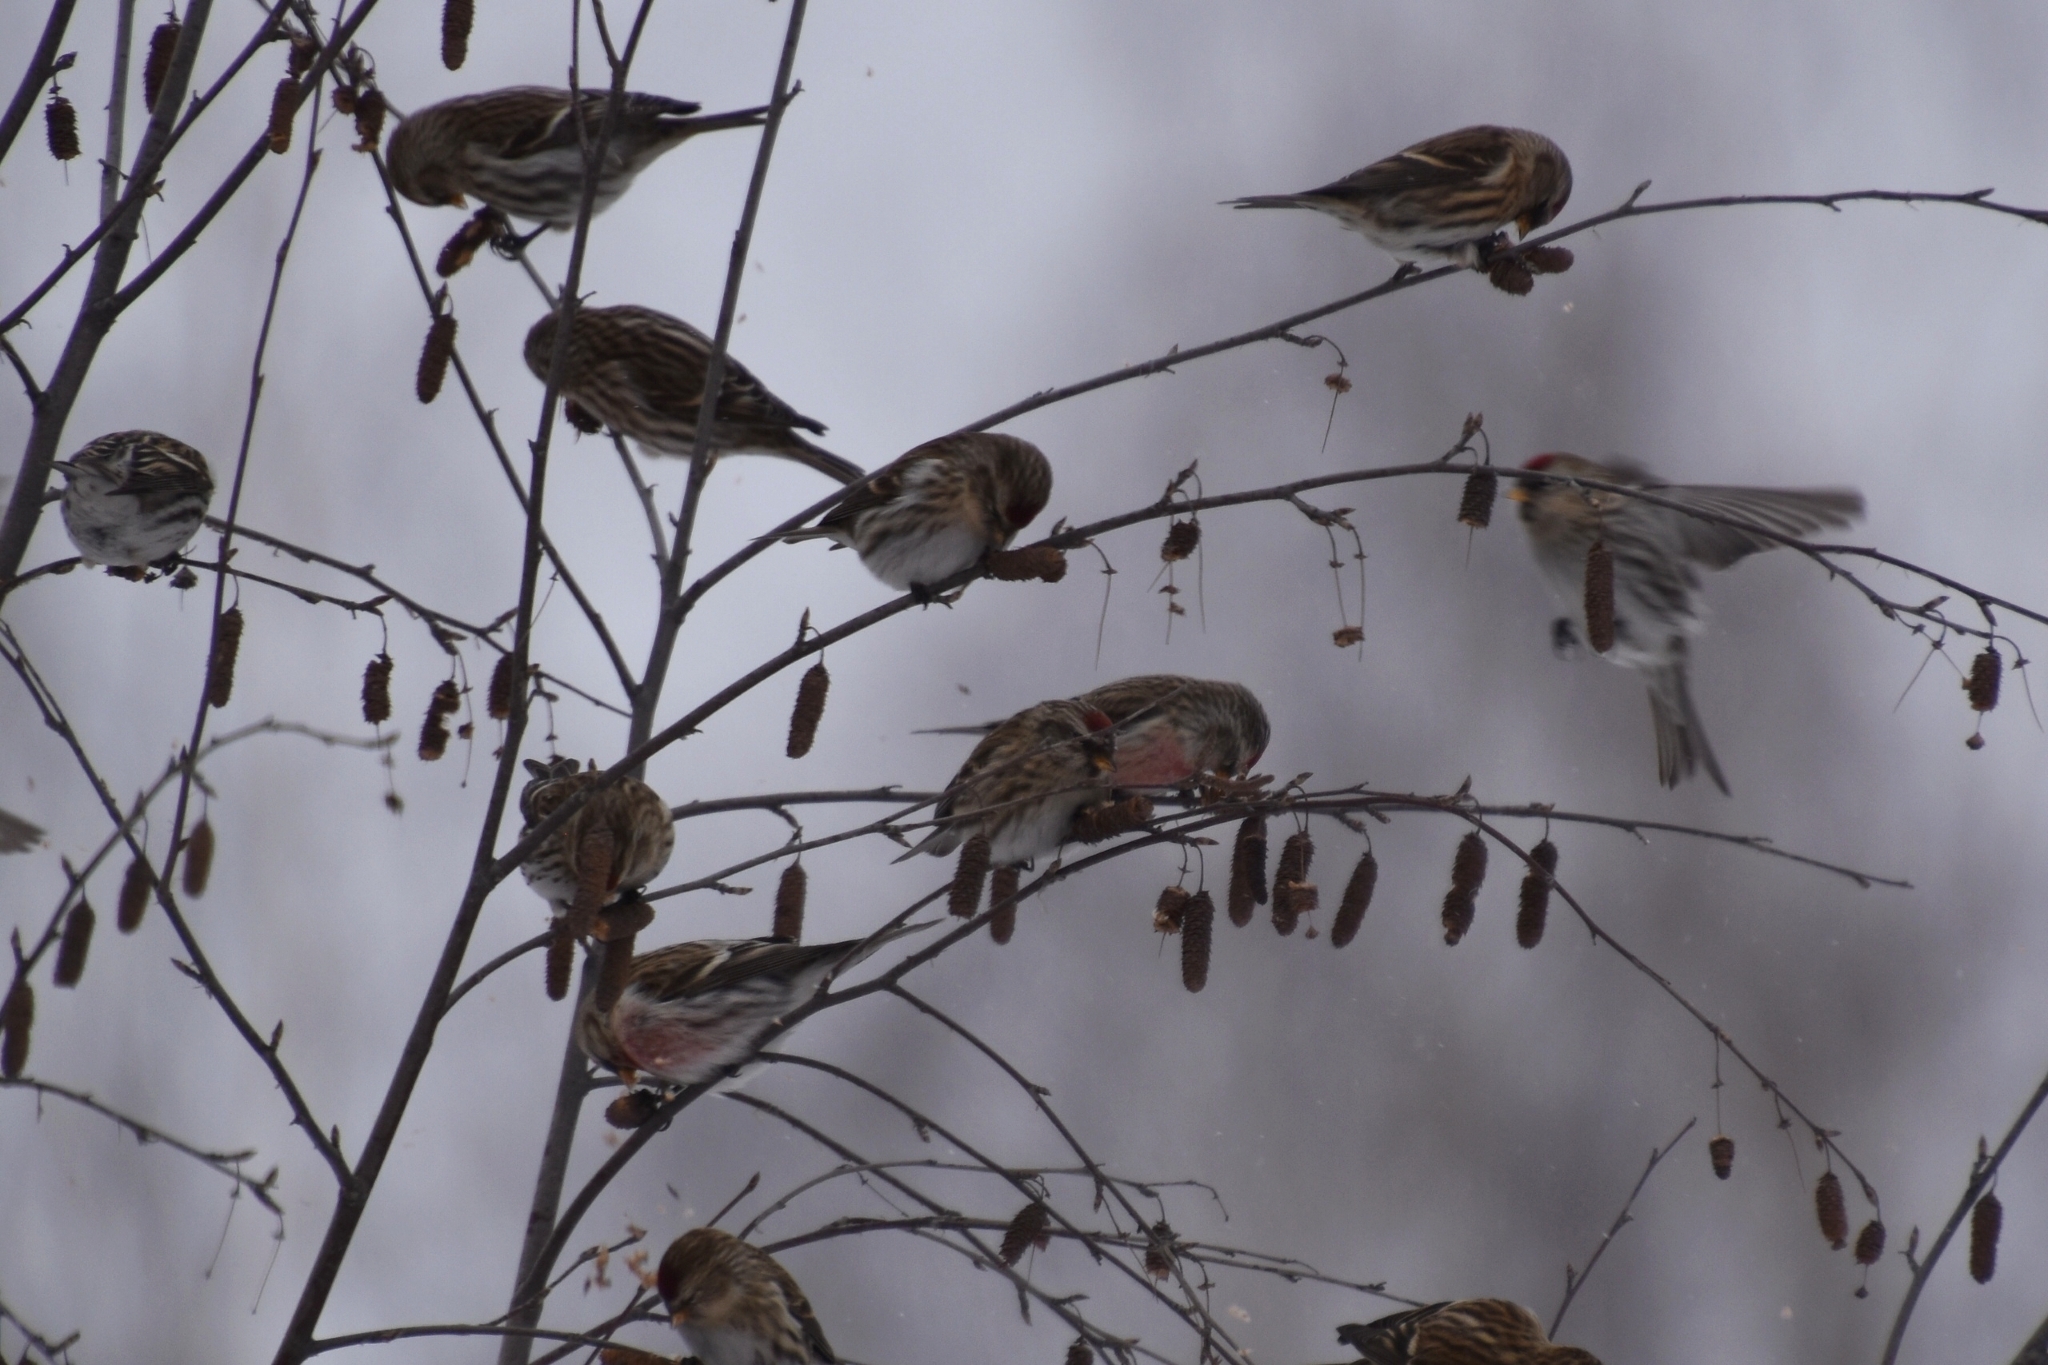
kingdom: Animalia
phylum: Chordata
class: Aves
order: Passeriformes
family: Fringillidae
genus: Acanthis
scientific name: Acanthis flammea
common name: Common redpoll
